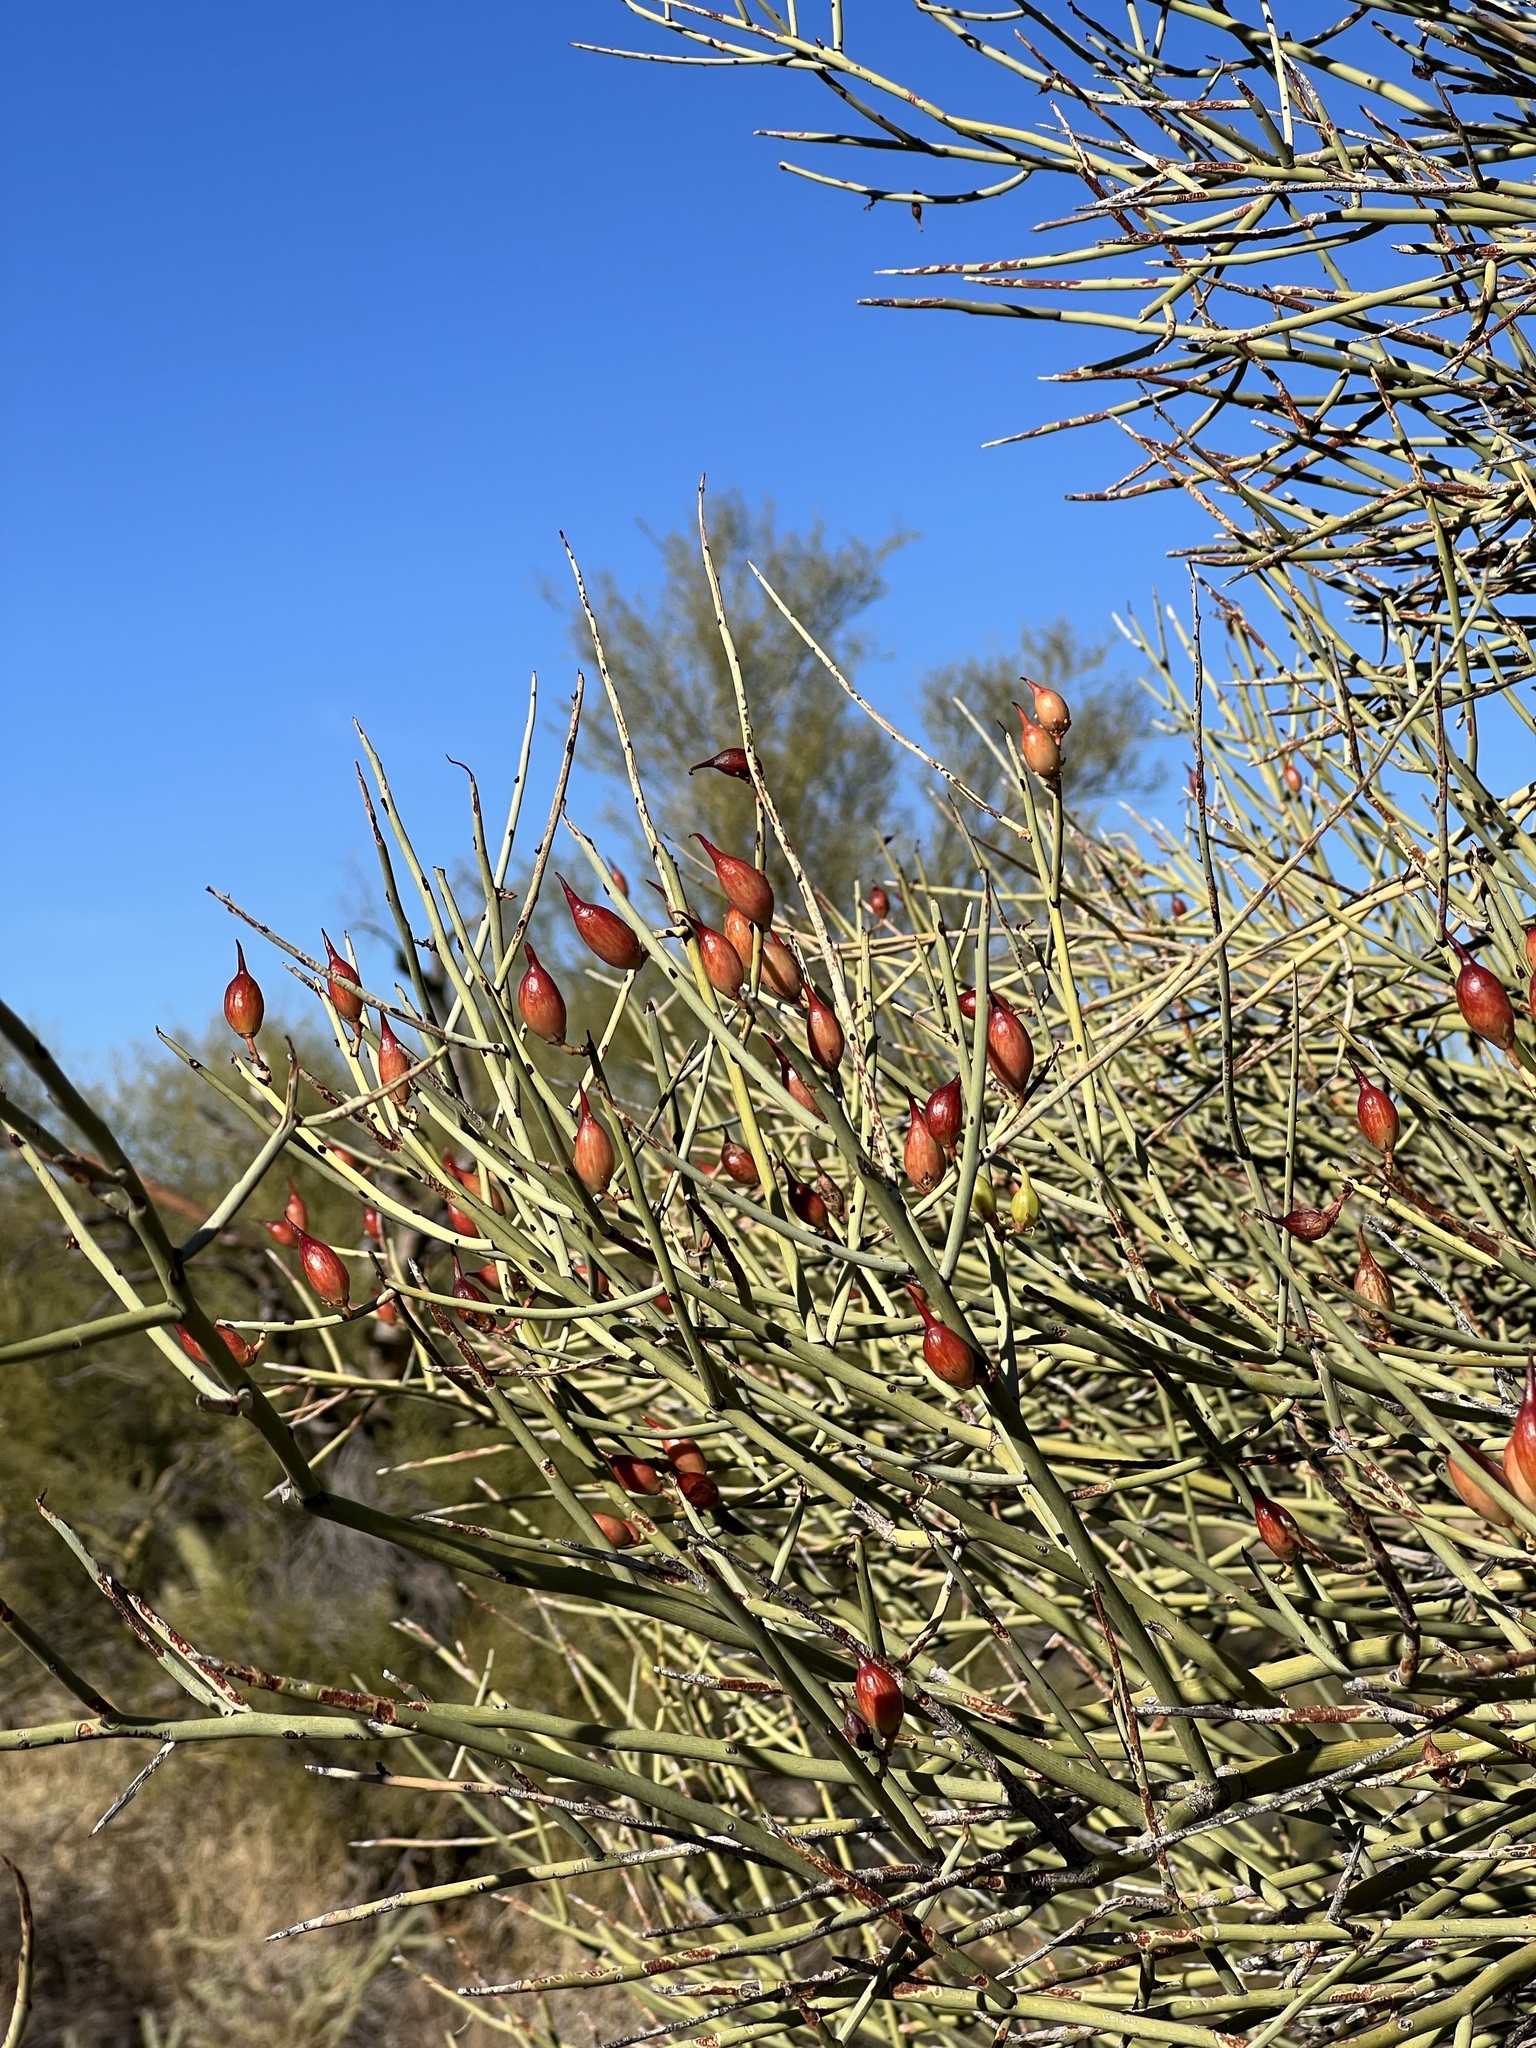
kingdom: Plantae
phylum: Tracheophyta
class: Magnoliopsida
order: Celastrales
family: Celastraceae
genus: Canotia
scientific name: Canotia holacantha
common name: Crucifixion thorns
